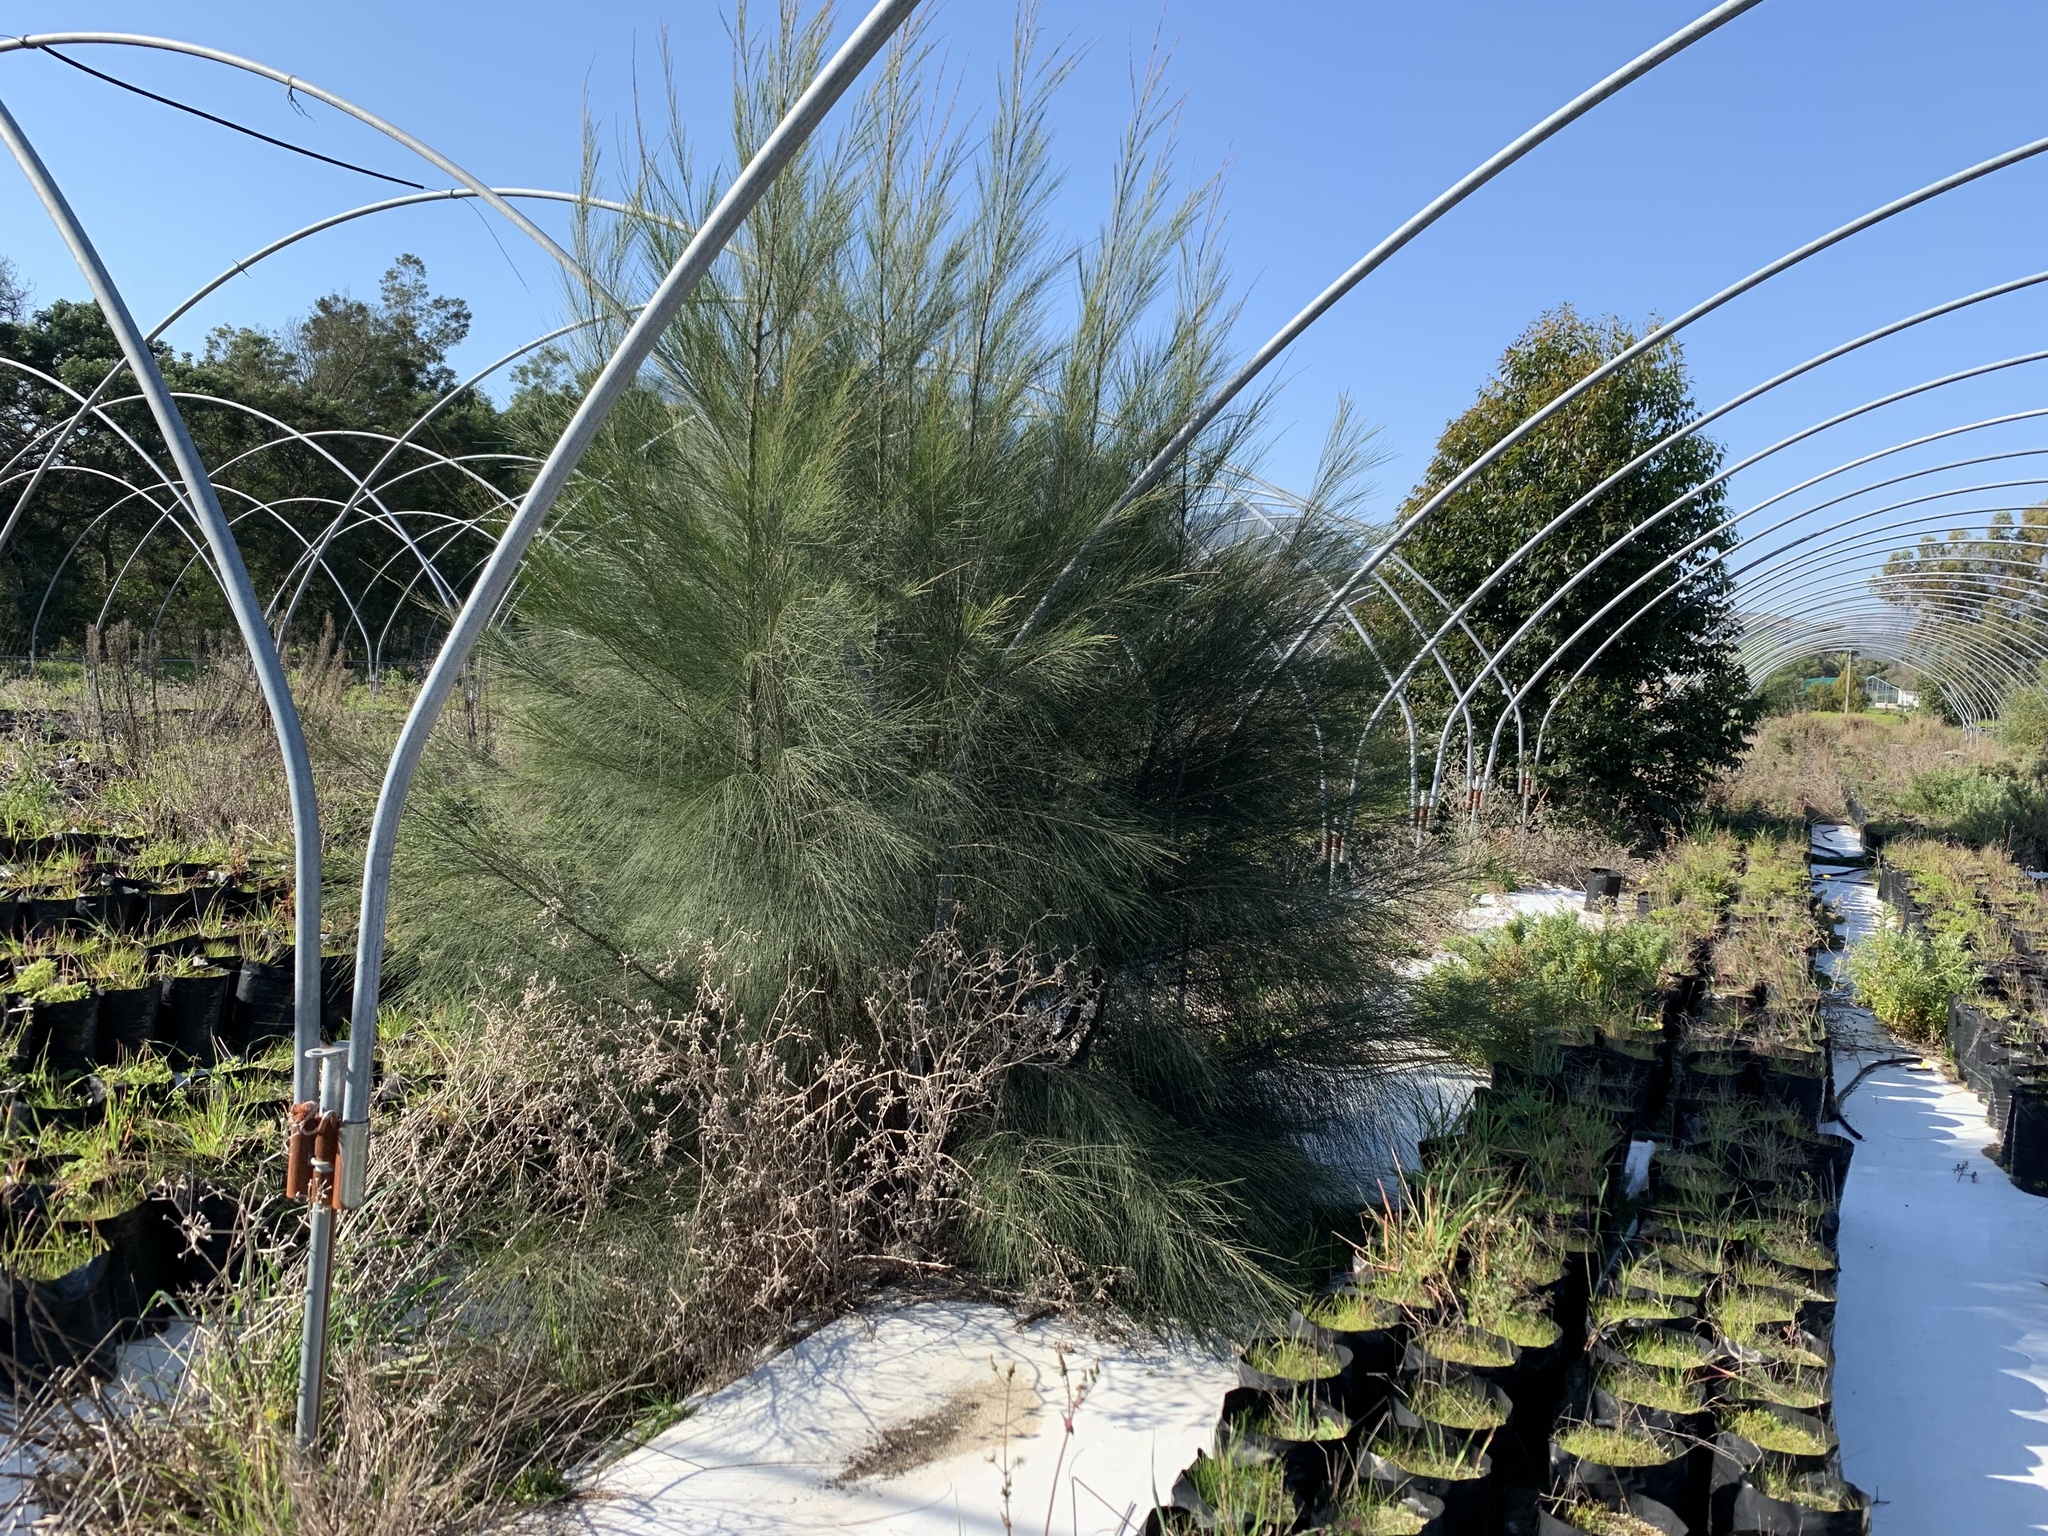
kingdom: Plantae
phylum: Tracheophyta
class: Magnoliopsida
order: Fagales
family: Casuarinaceae
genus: Casuarina
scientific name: Casuarina cunninghamiana
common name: River sheoak
